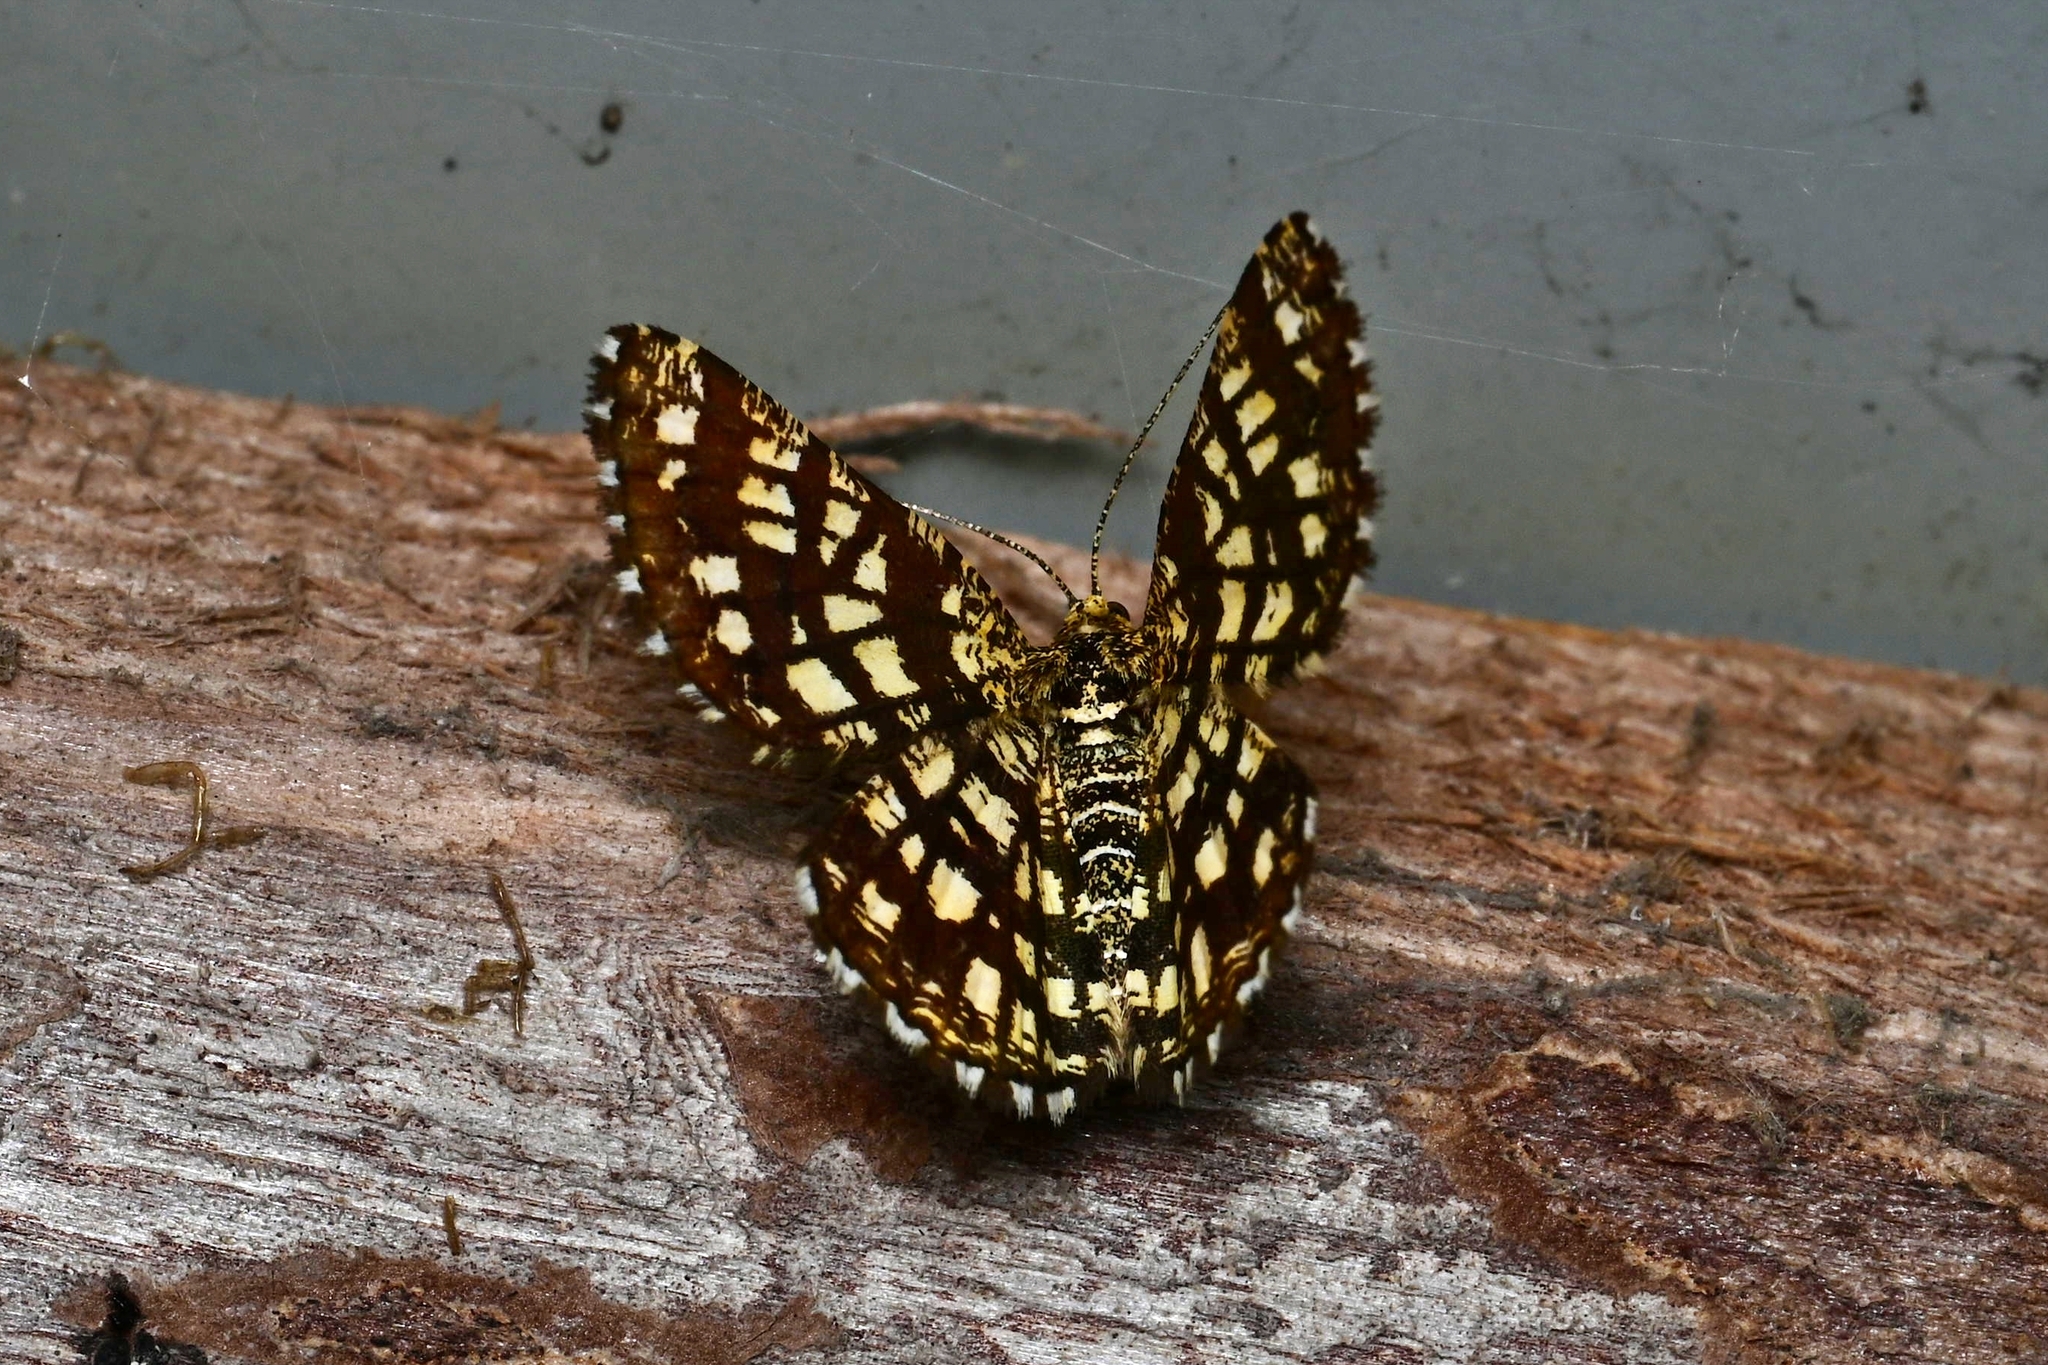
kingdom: Animalia
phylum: Arthropoda
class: Insecta
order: Lepidoptera
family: Geometridae
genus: Chiasmia
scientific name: Chiasmia clathrata
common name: Latticed heath
